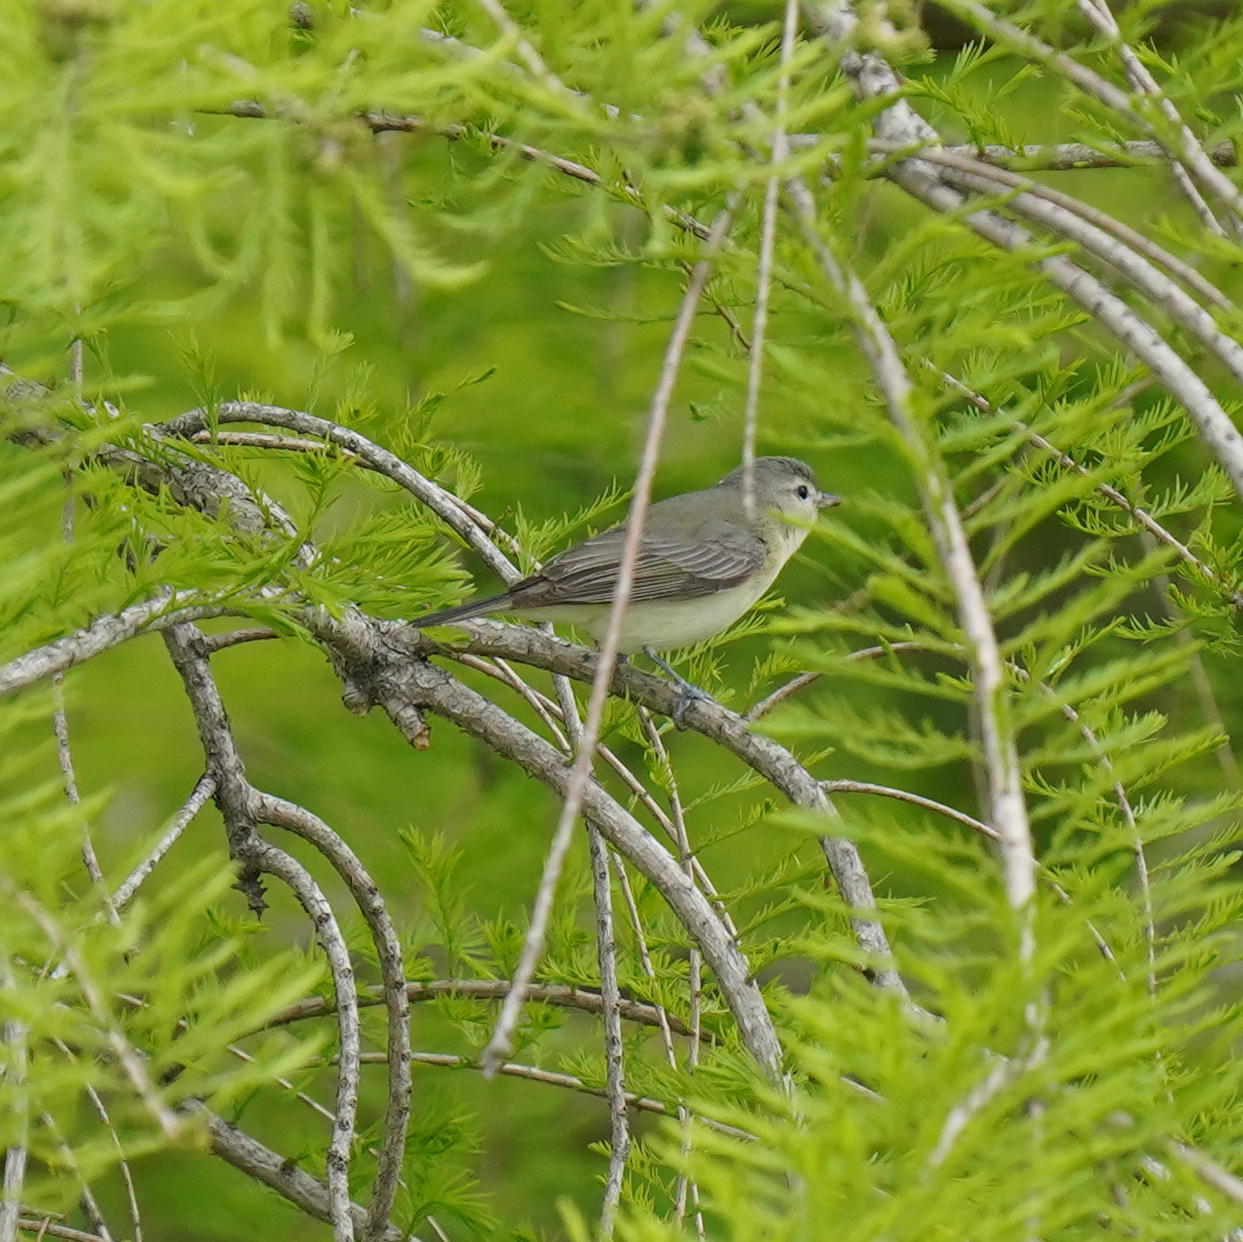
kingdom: Animalia
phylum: Chordata
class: Aves
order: Passeriformes
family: Vireonidae
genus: Vireo
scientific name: Vireo gilvus
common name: Warbling vireo
